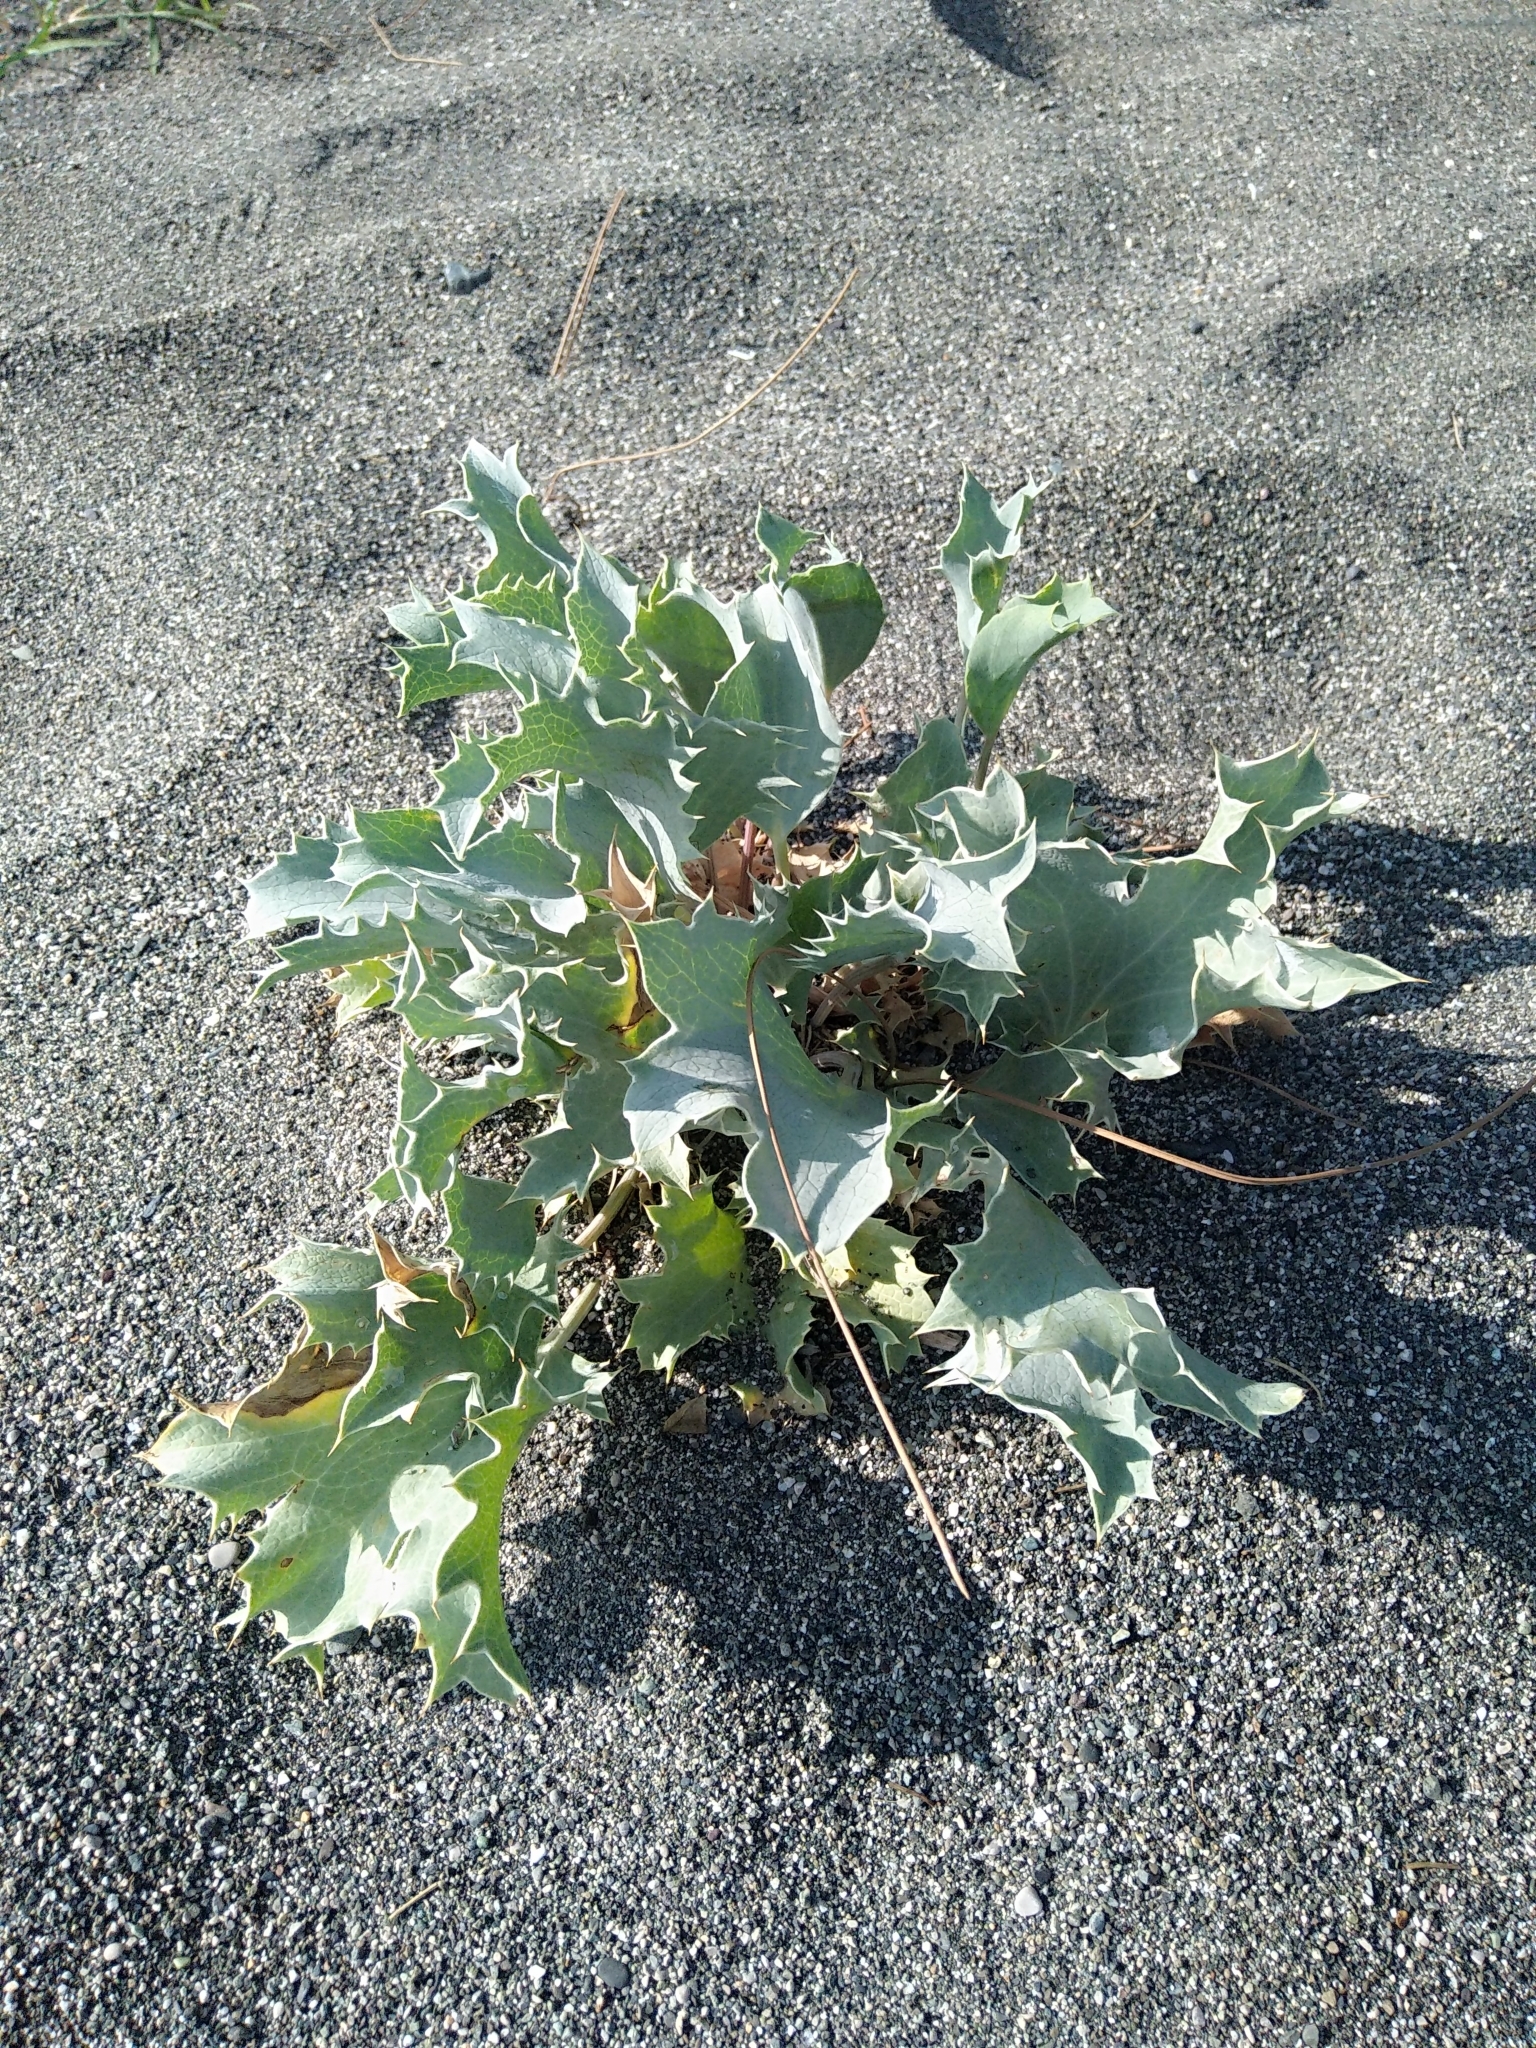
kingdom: Plantae
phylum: Tracheophyta
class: Magnoliopsida
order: Apiales
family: Apiaceae
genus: Eryngium
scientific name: Eryngium maritimum
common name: Sea-holly
